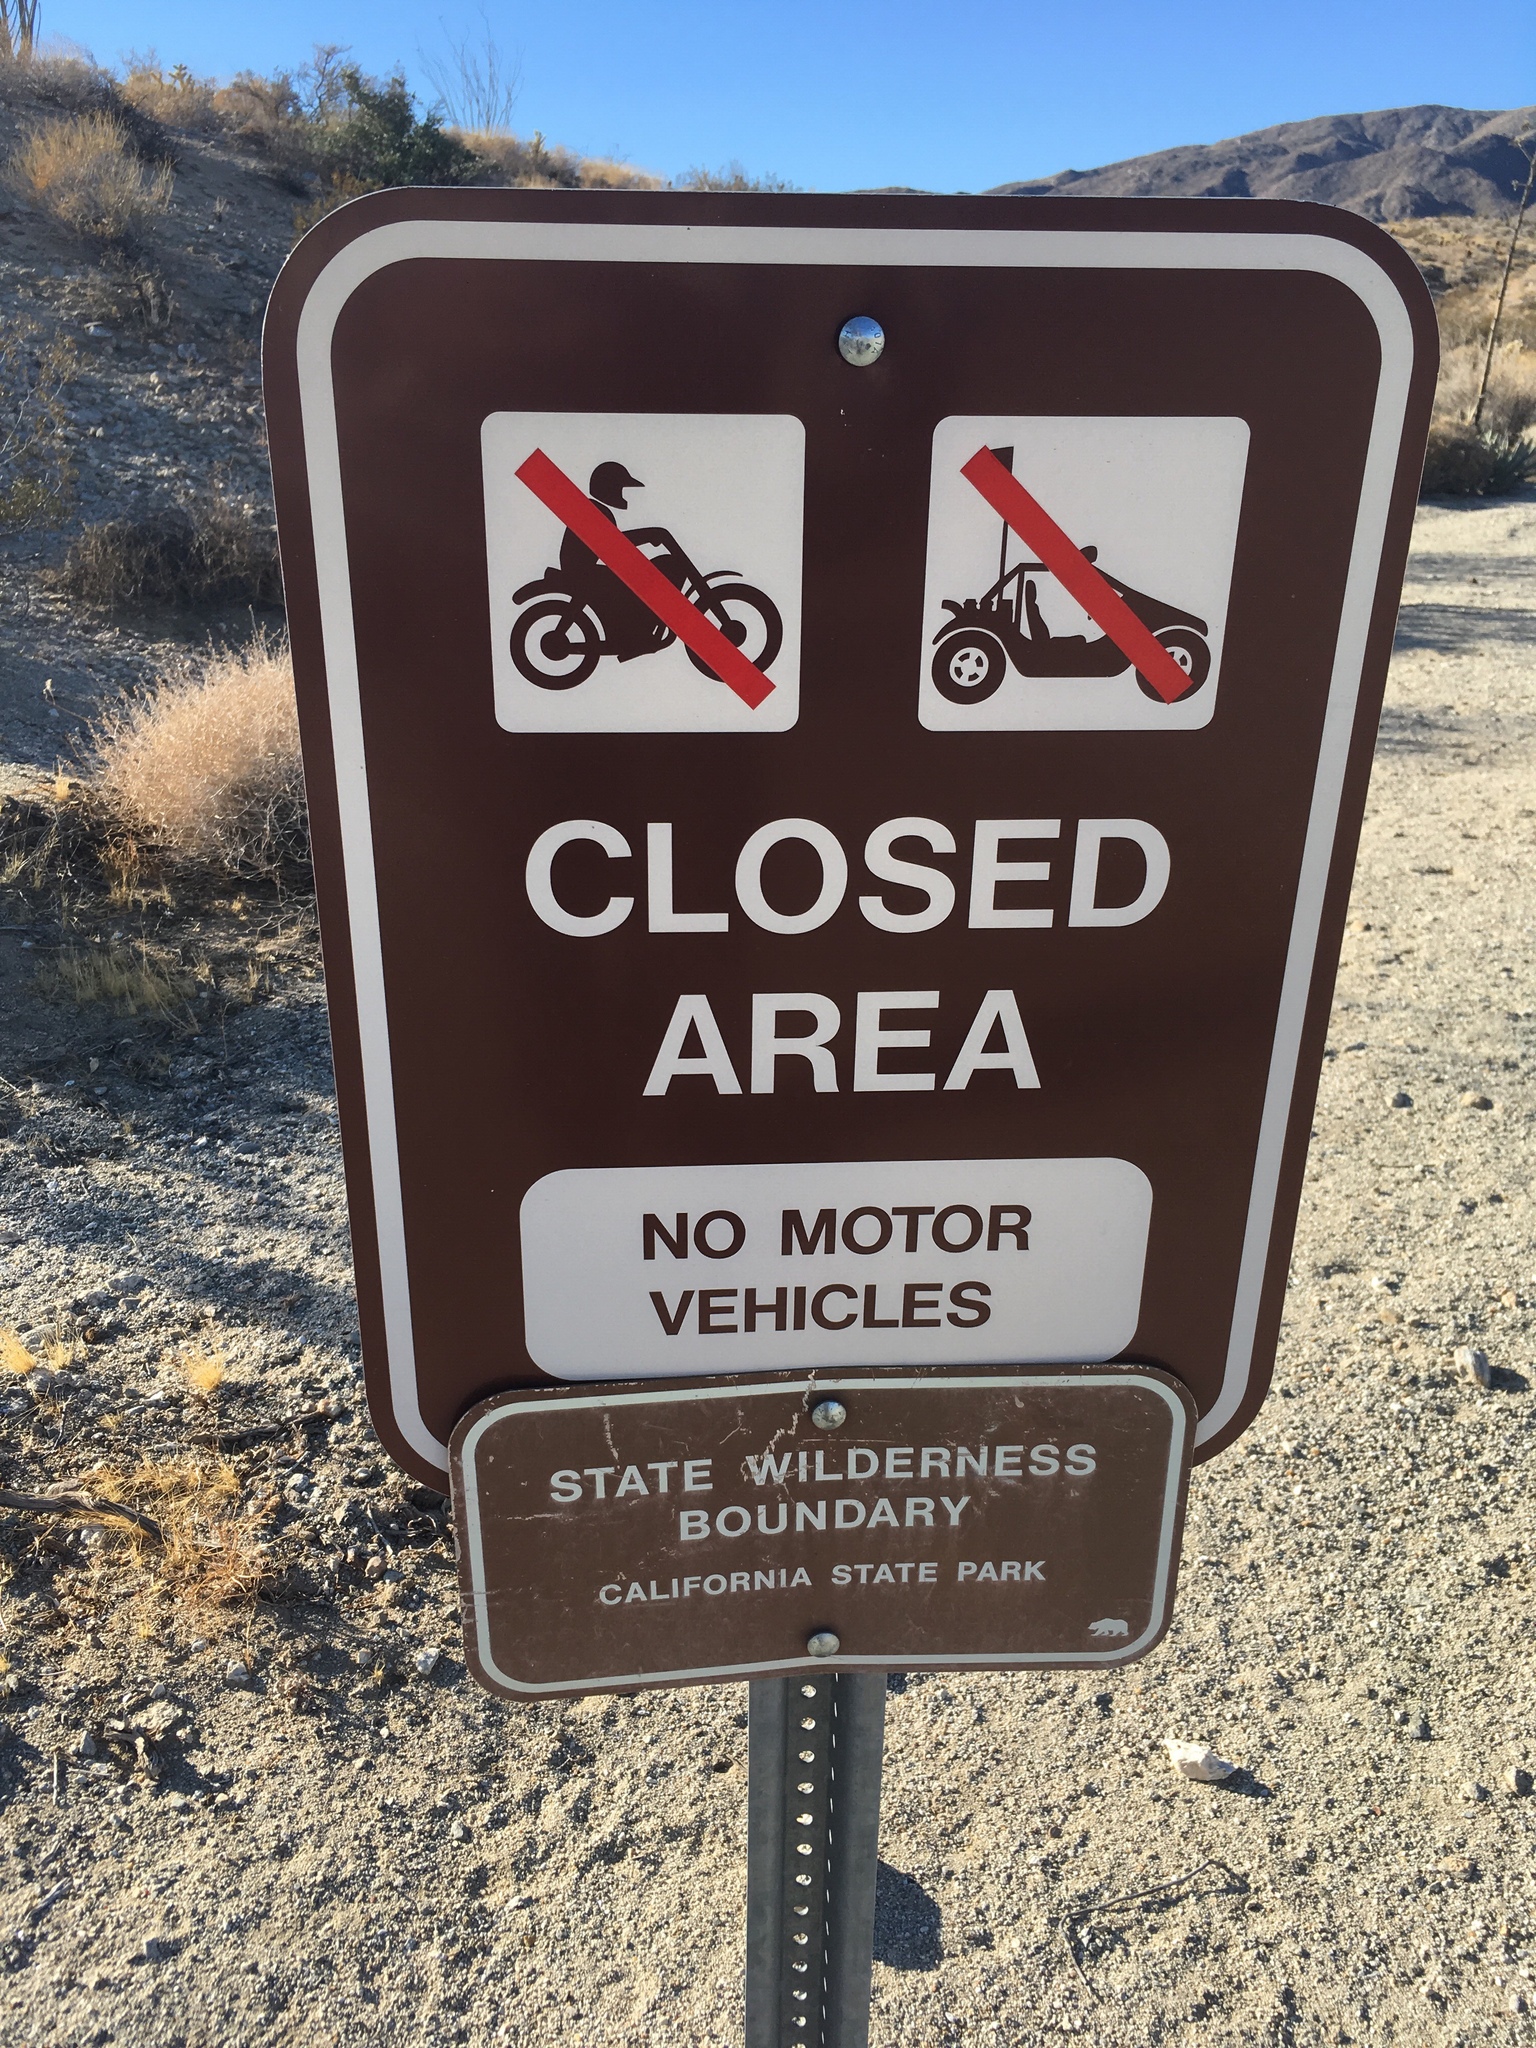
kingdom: Plantae
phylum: Tracheophyta
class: Liliopsida
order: Asparagales
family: Asparagaceae
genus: Agave
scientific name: Agave deserti
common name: Desert agave
